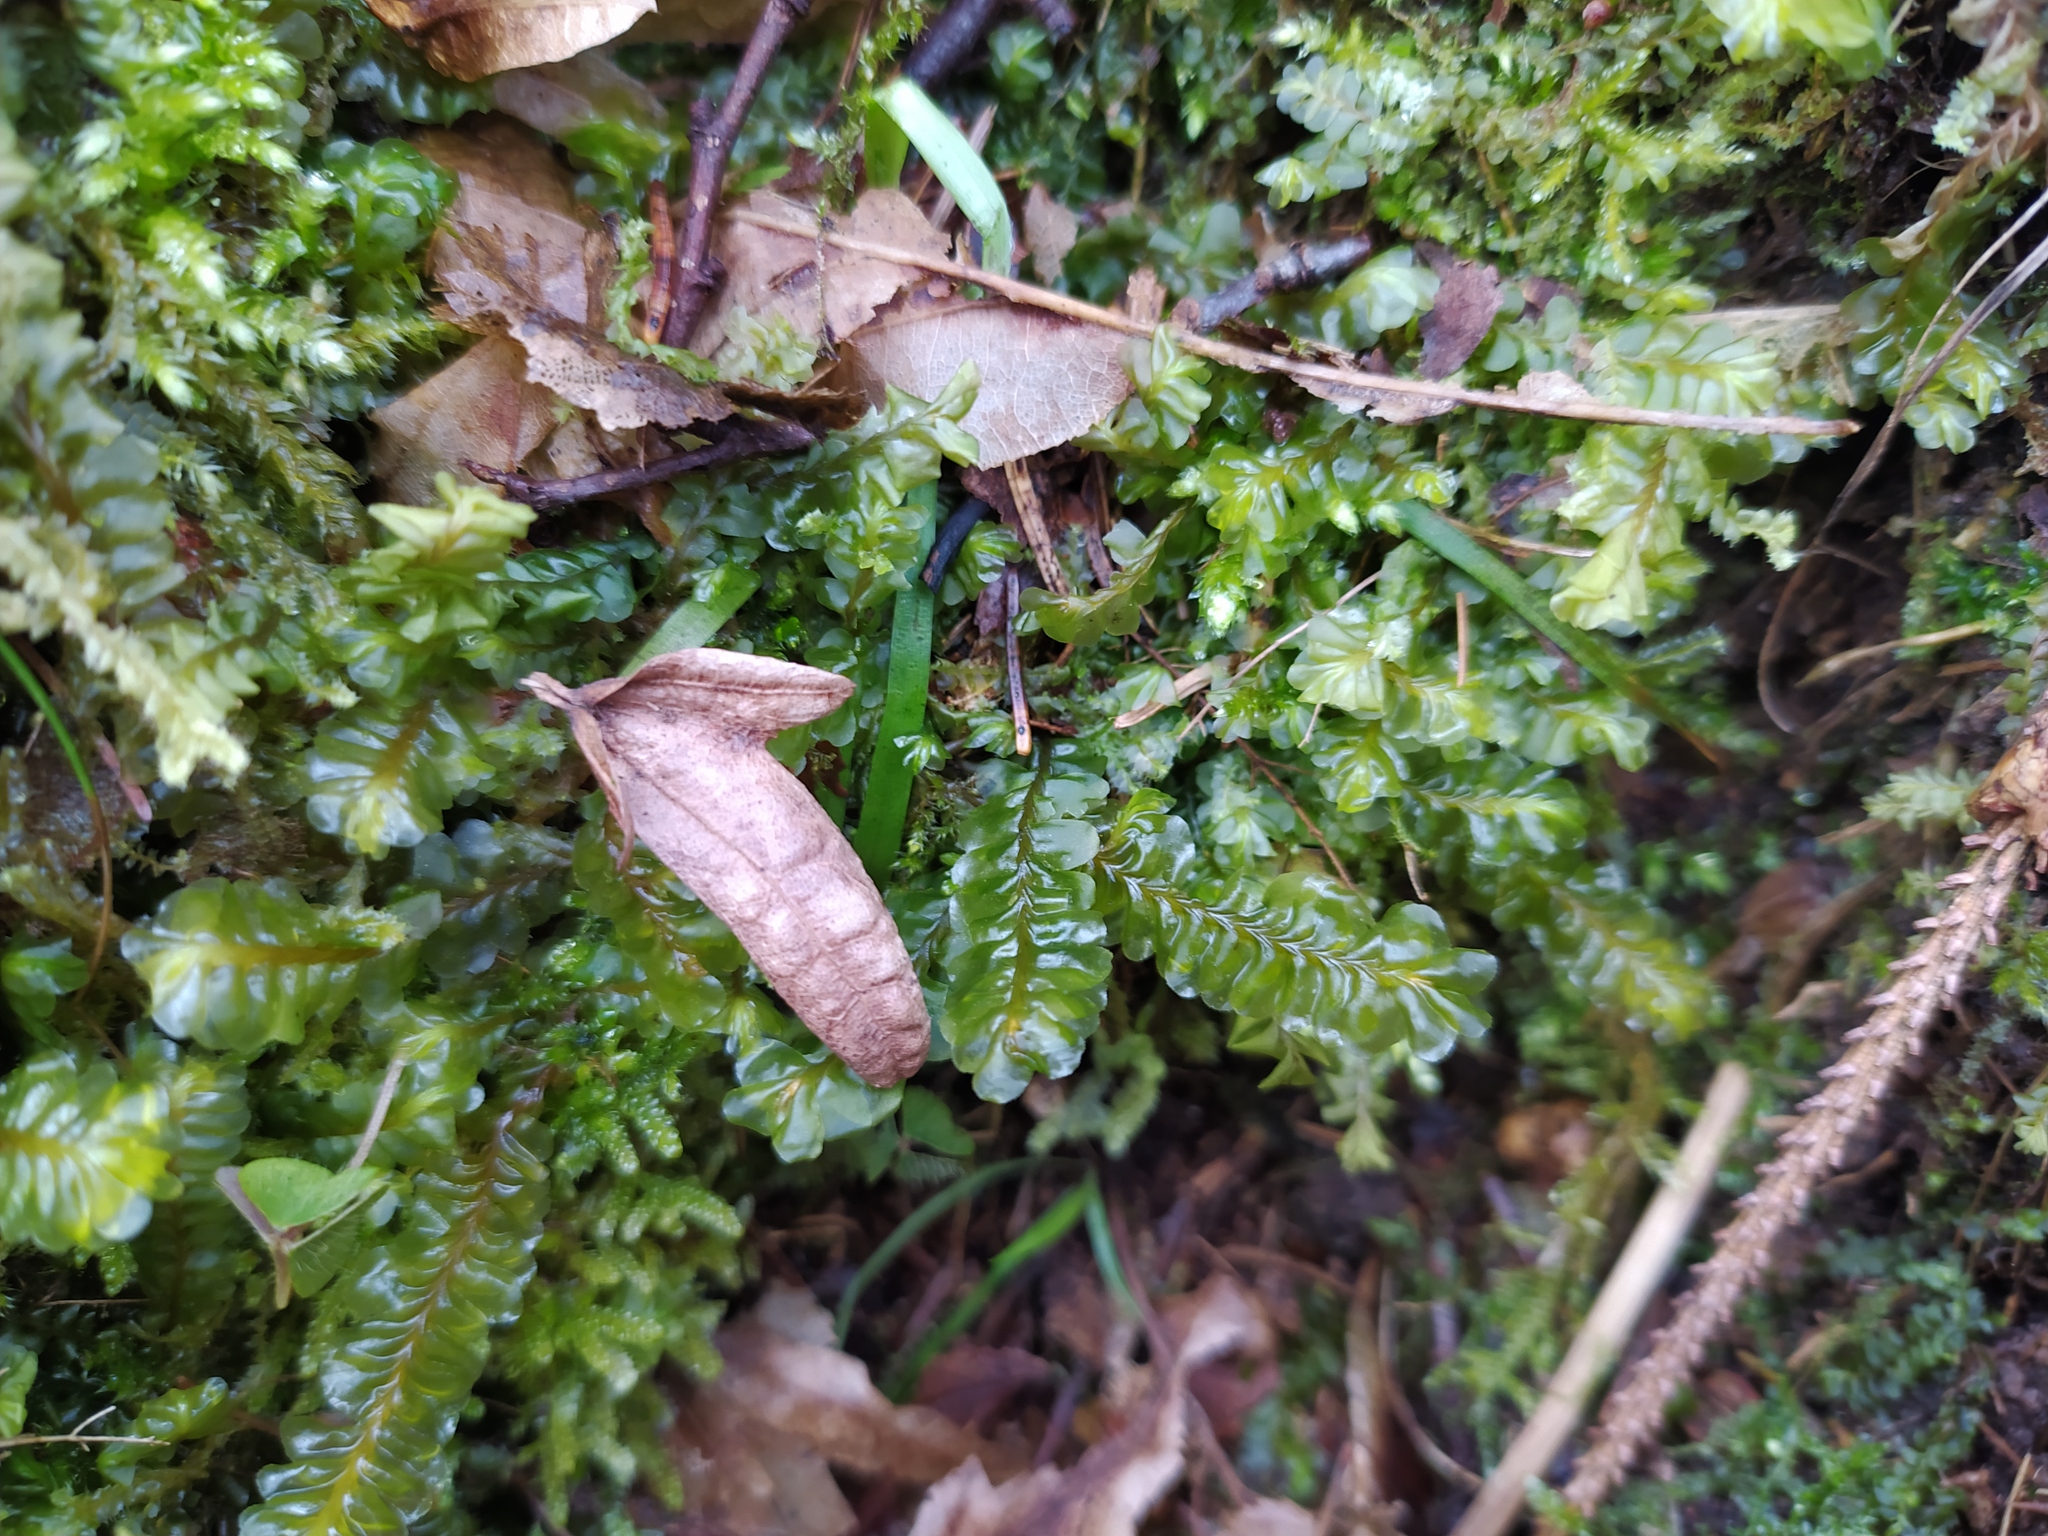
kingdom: Plantae
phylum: Marchantiophyta
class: Jungermanniopsida
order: Jungermanniales
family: Plagiochilaceae
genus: Plagiochila
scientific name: Plagiochila asplenioides
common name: Greater featherwort
